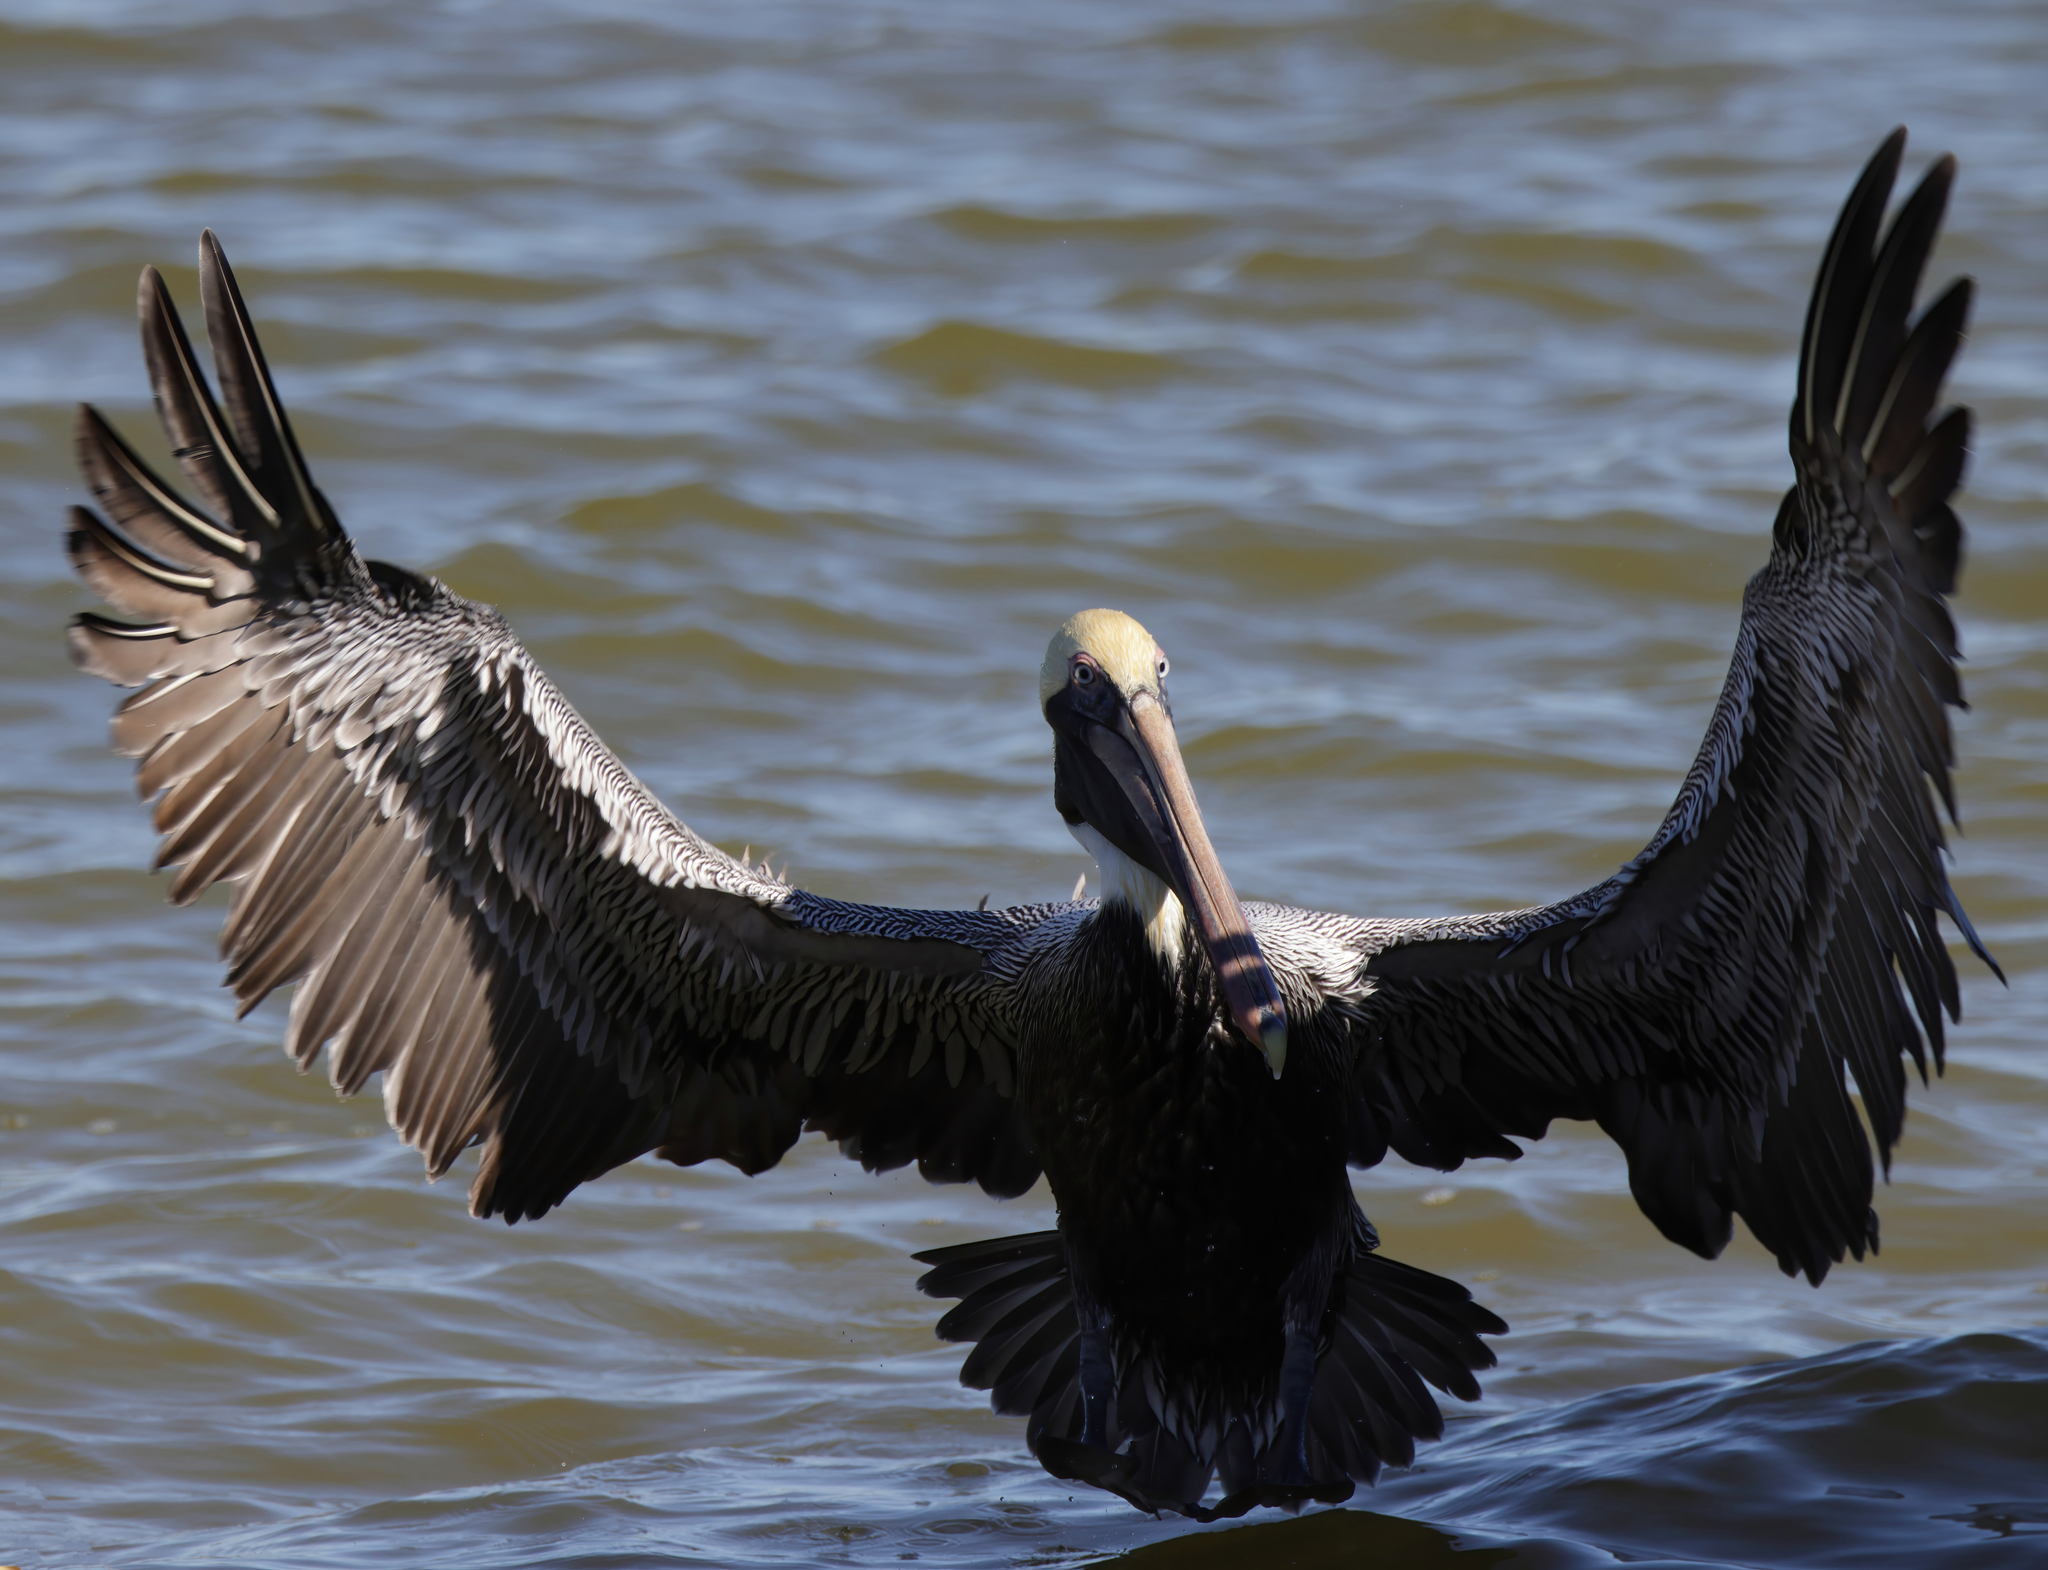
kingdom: Animalia
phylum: Chordata
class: Aves
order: Pelecaniformes
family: Pelecanidae
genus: Pelecanus
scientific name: Pelecanus occidentalis
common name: Brown pelican
